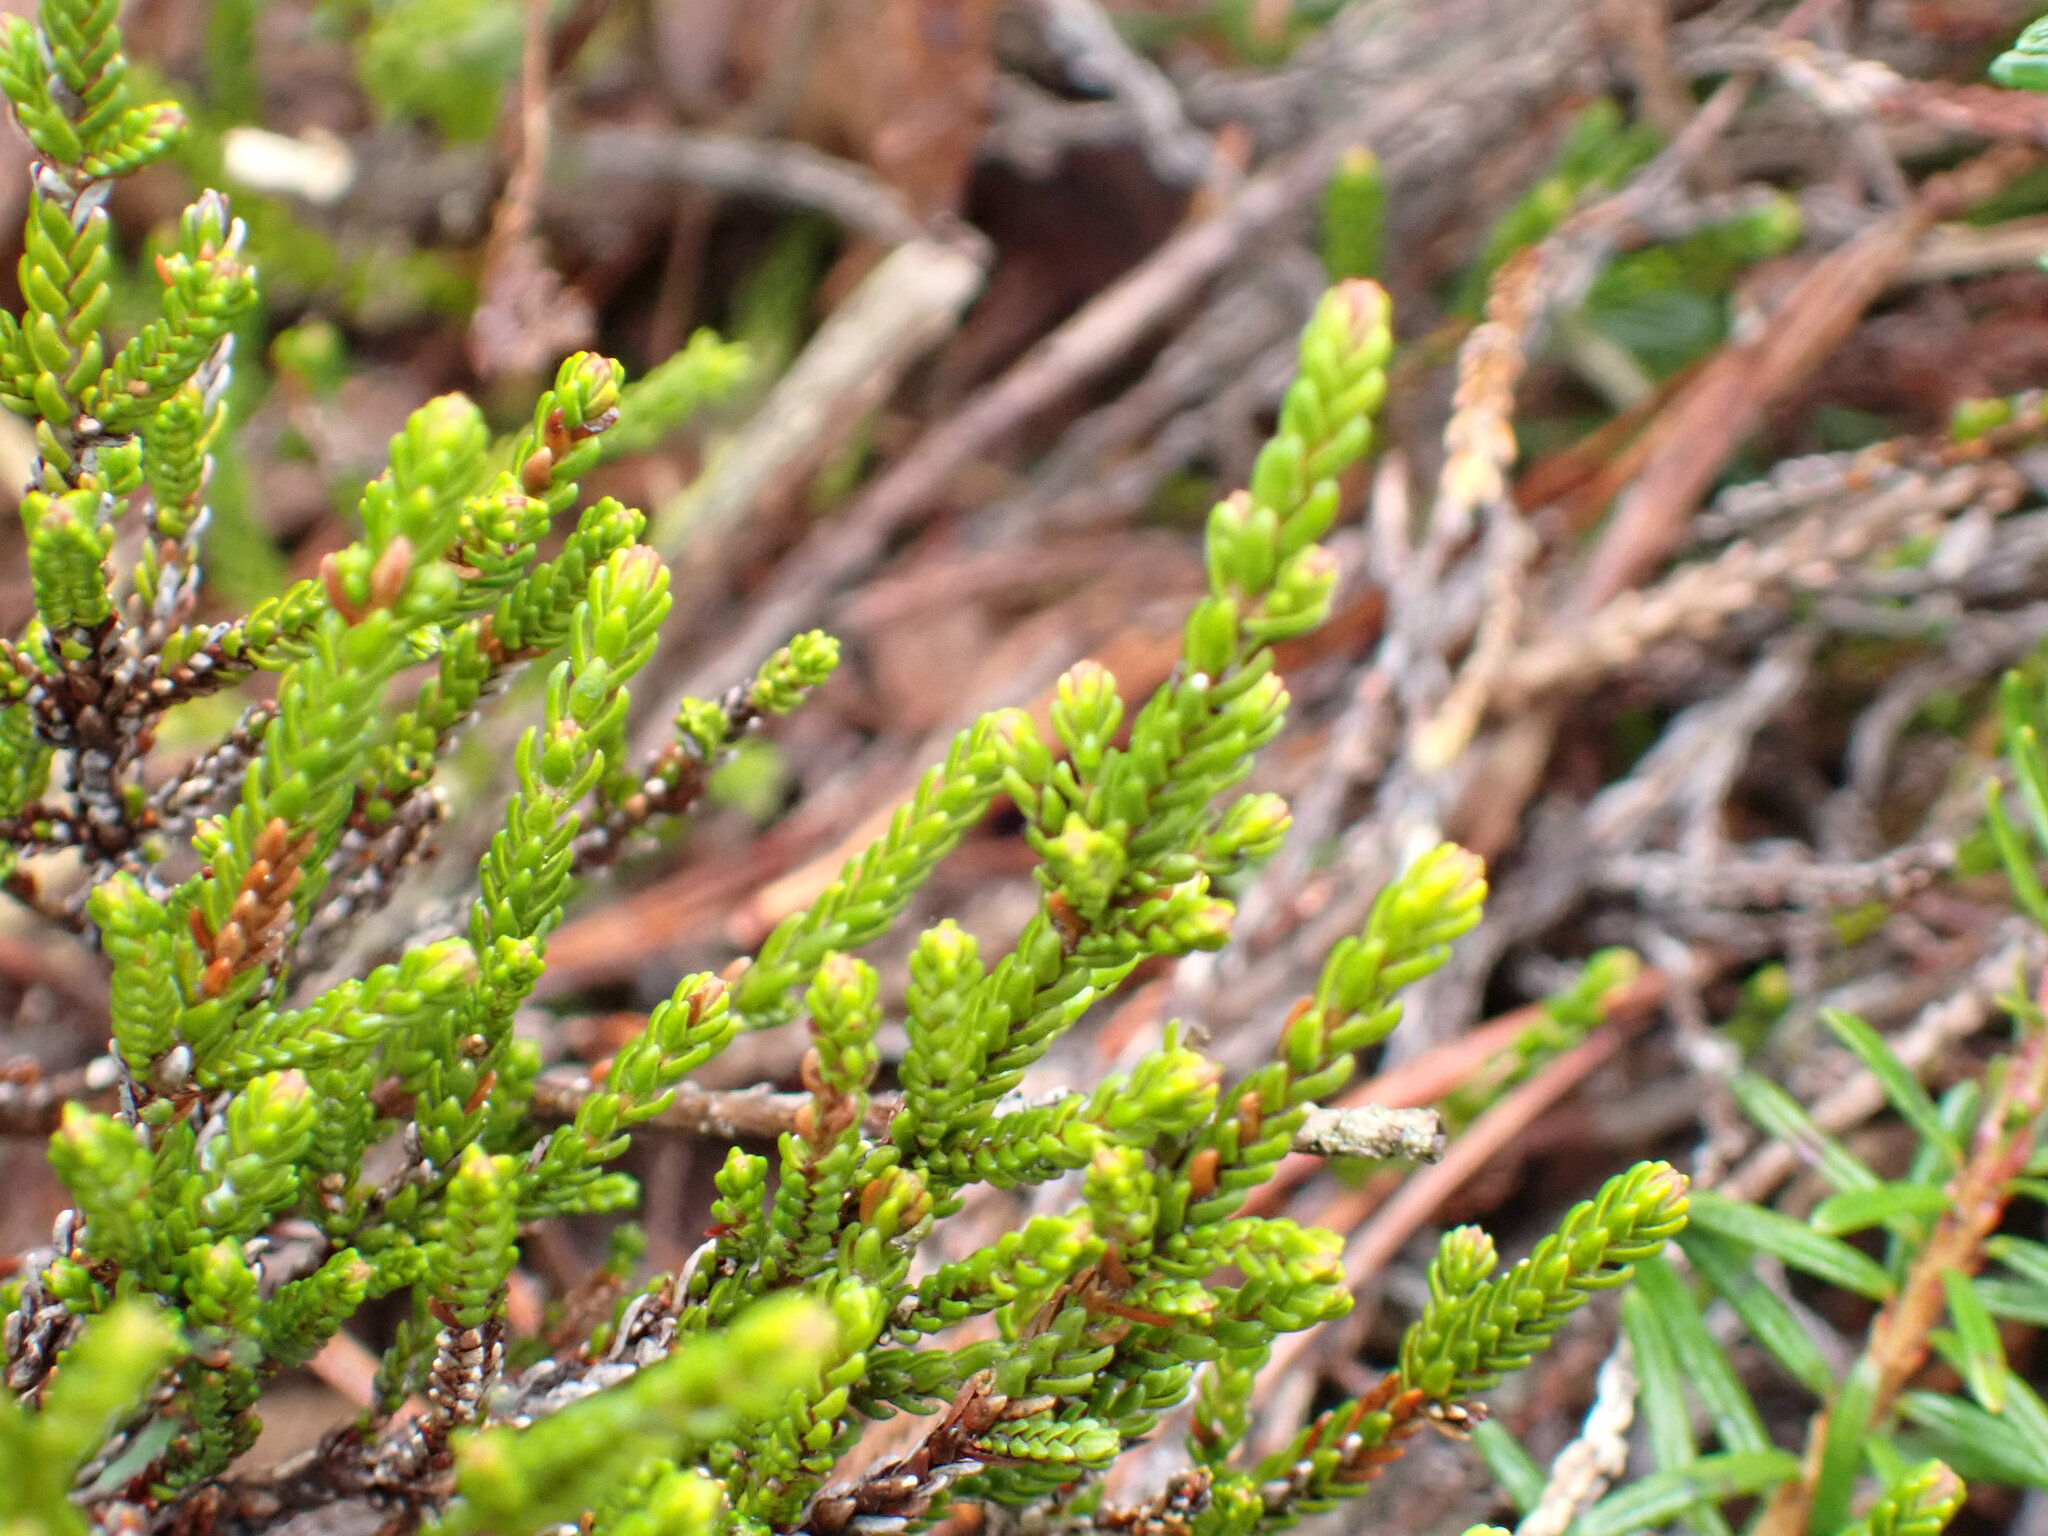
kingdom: Plantae
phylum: Tracheophyta
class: Magnoliopsida
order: Ericales
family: Ericaceae
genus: Cassiope
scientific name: Cassiope mertensiana
